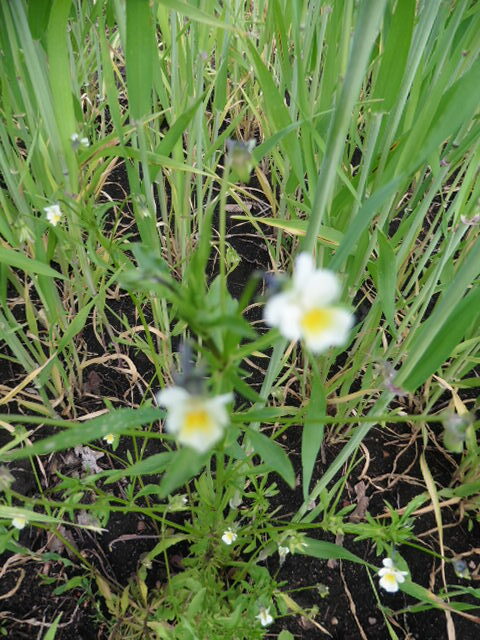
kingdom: Plantae
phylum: Tracheophyta
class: Magnoliopsida
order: Malpighiales
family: Violaceae
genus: Viola
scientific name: Viola arvensis
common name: Field pansy
